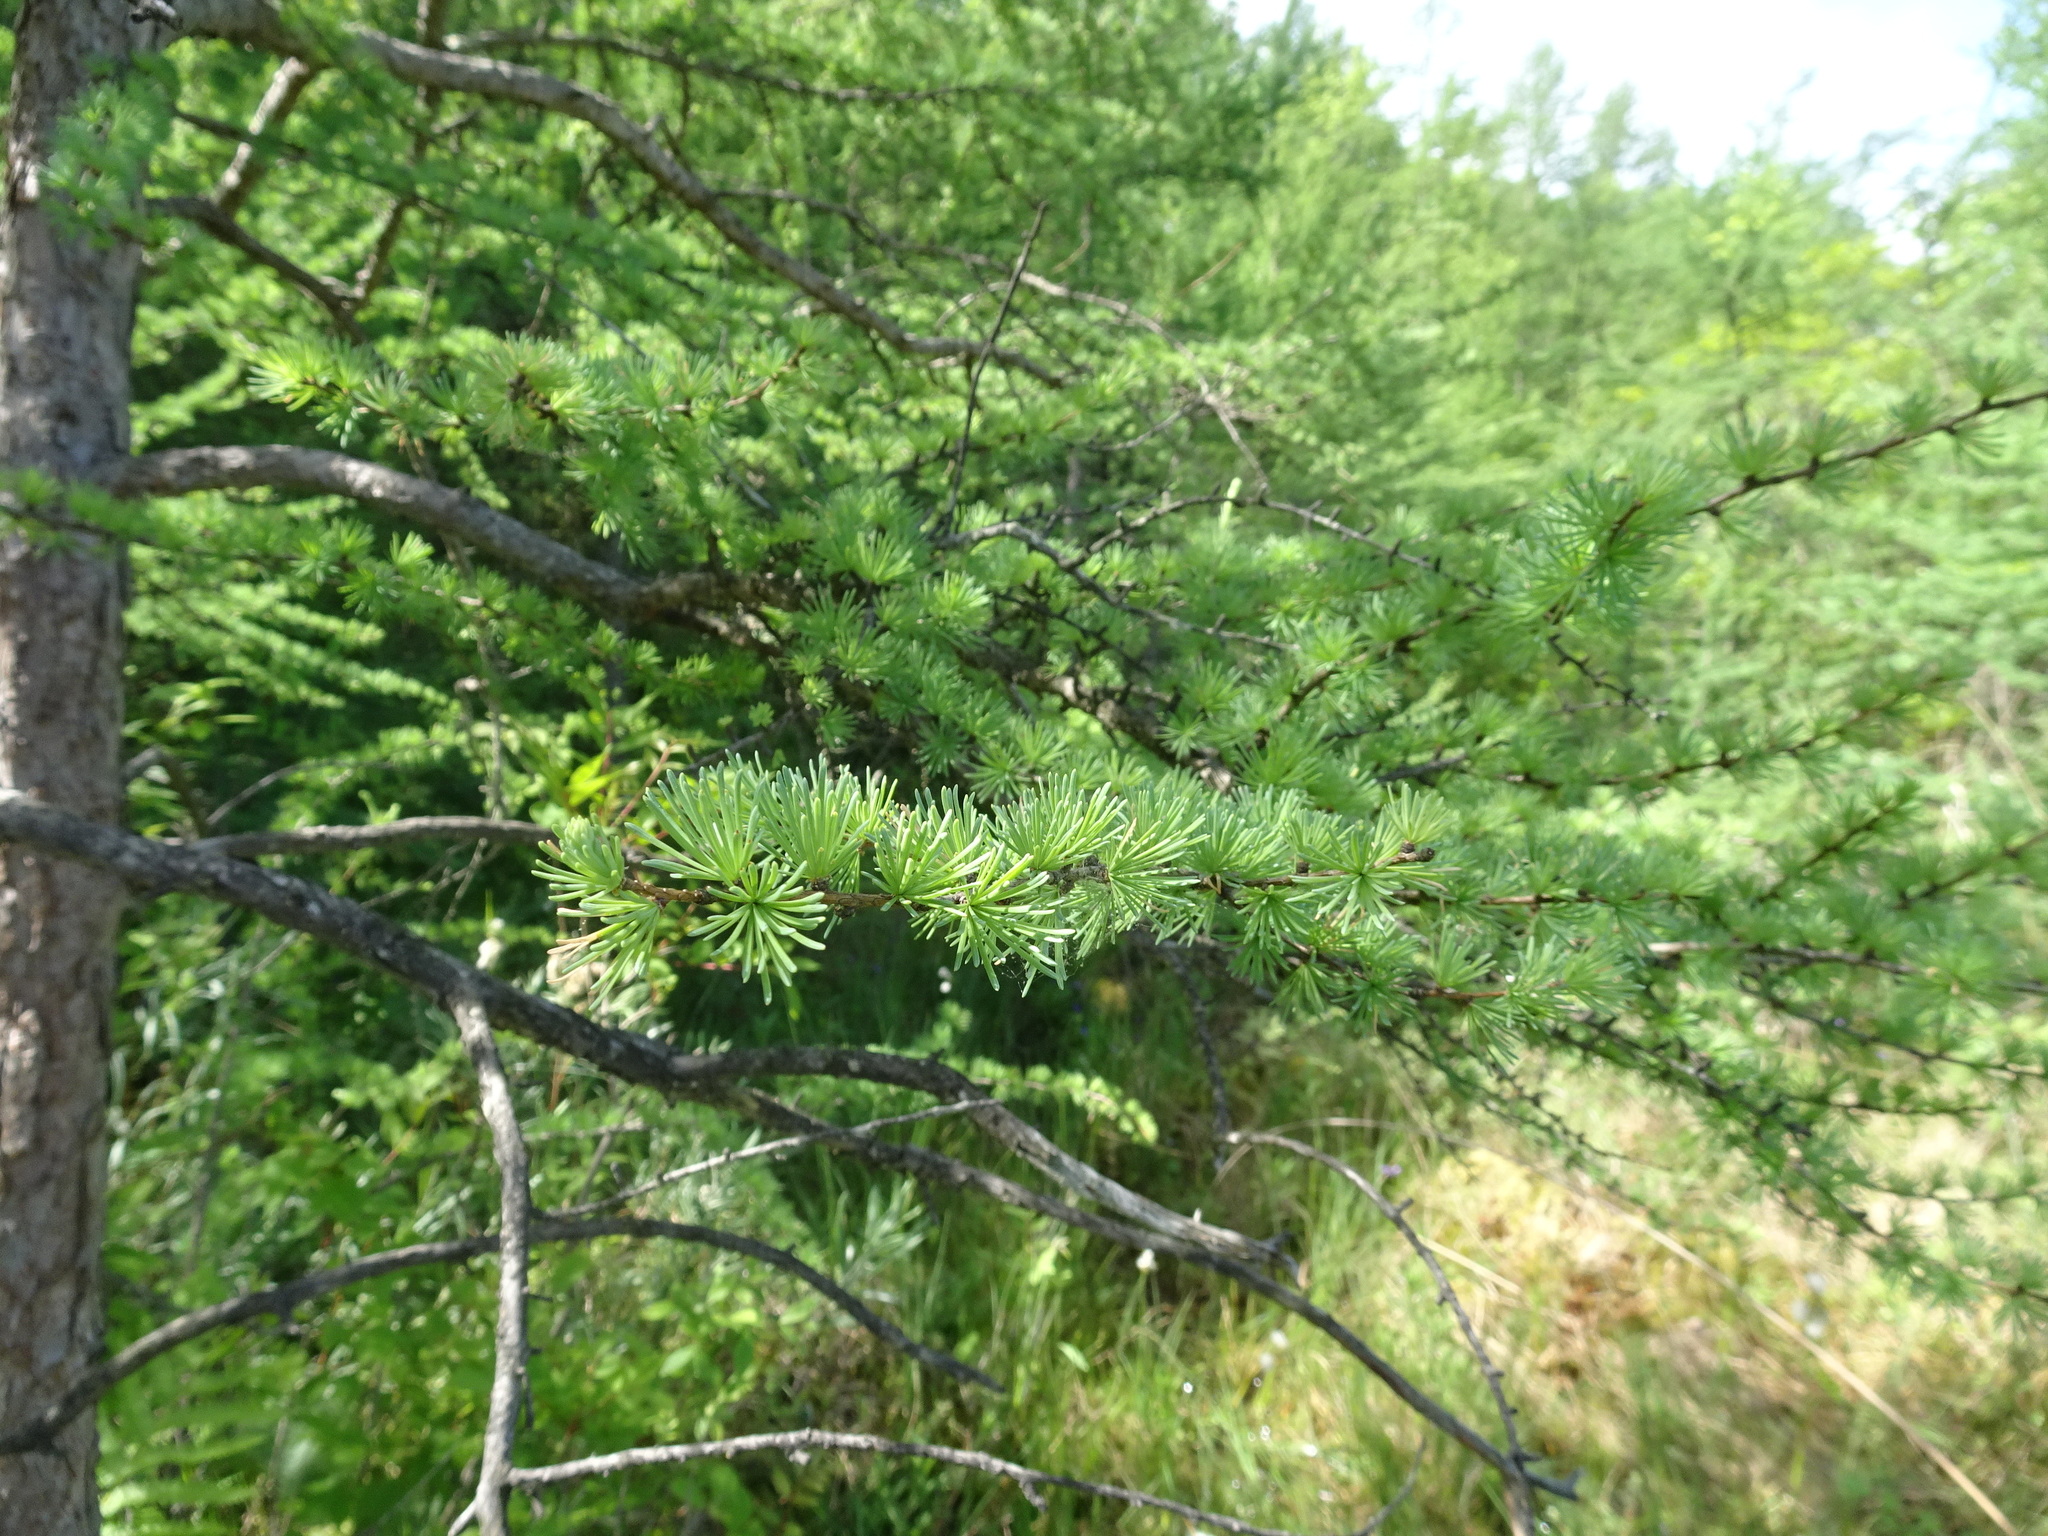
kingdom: Plantae
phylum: Tracheophyta
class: Pinopsida
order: Pinales
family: Pinaceae
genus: Larix
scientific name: Larix laricina
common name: American larch
